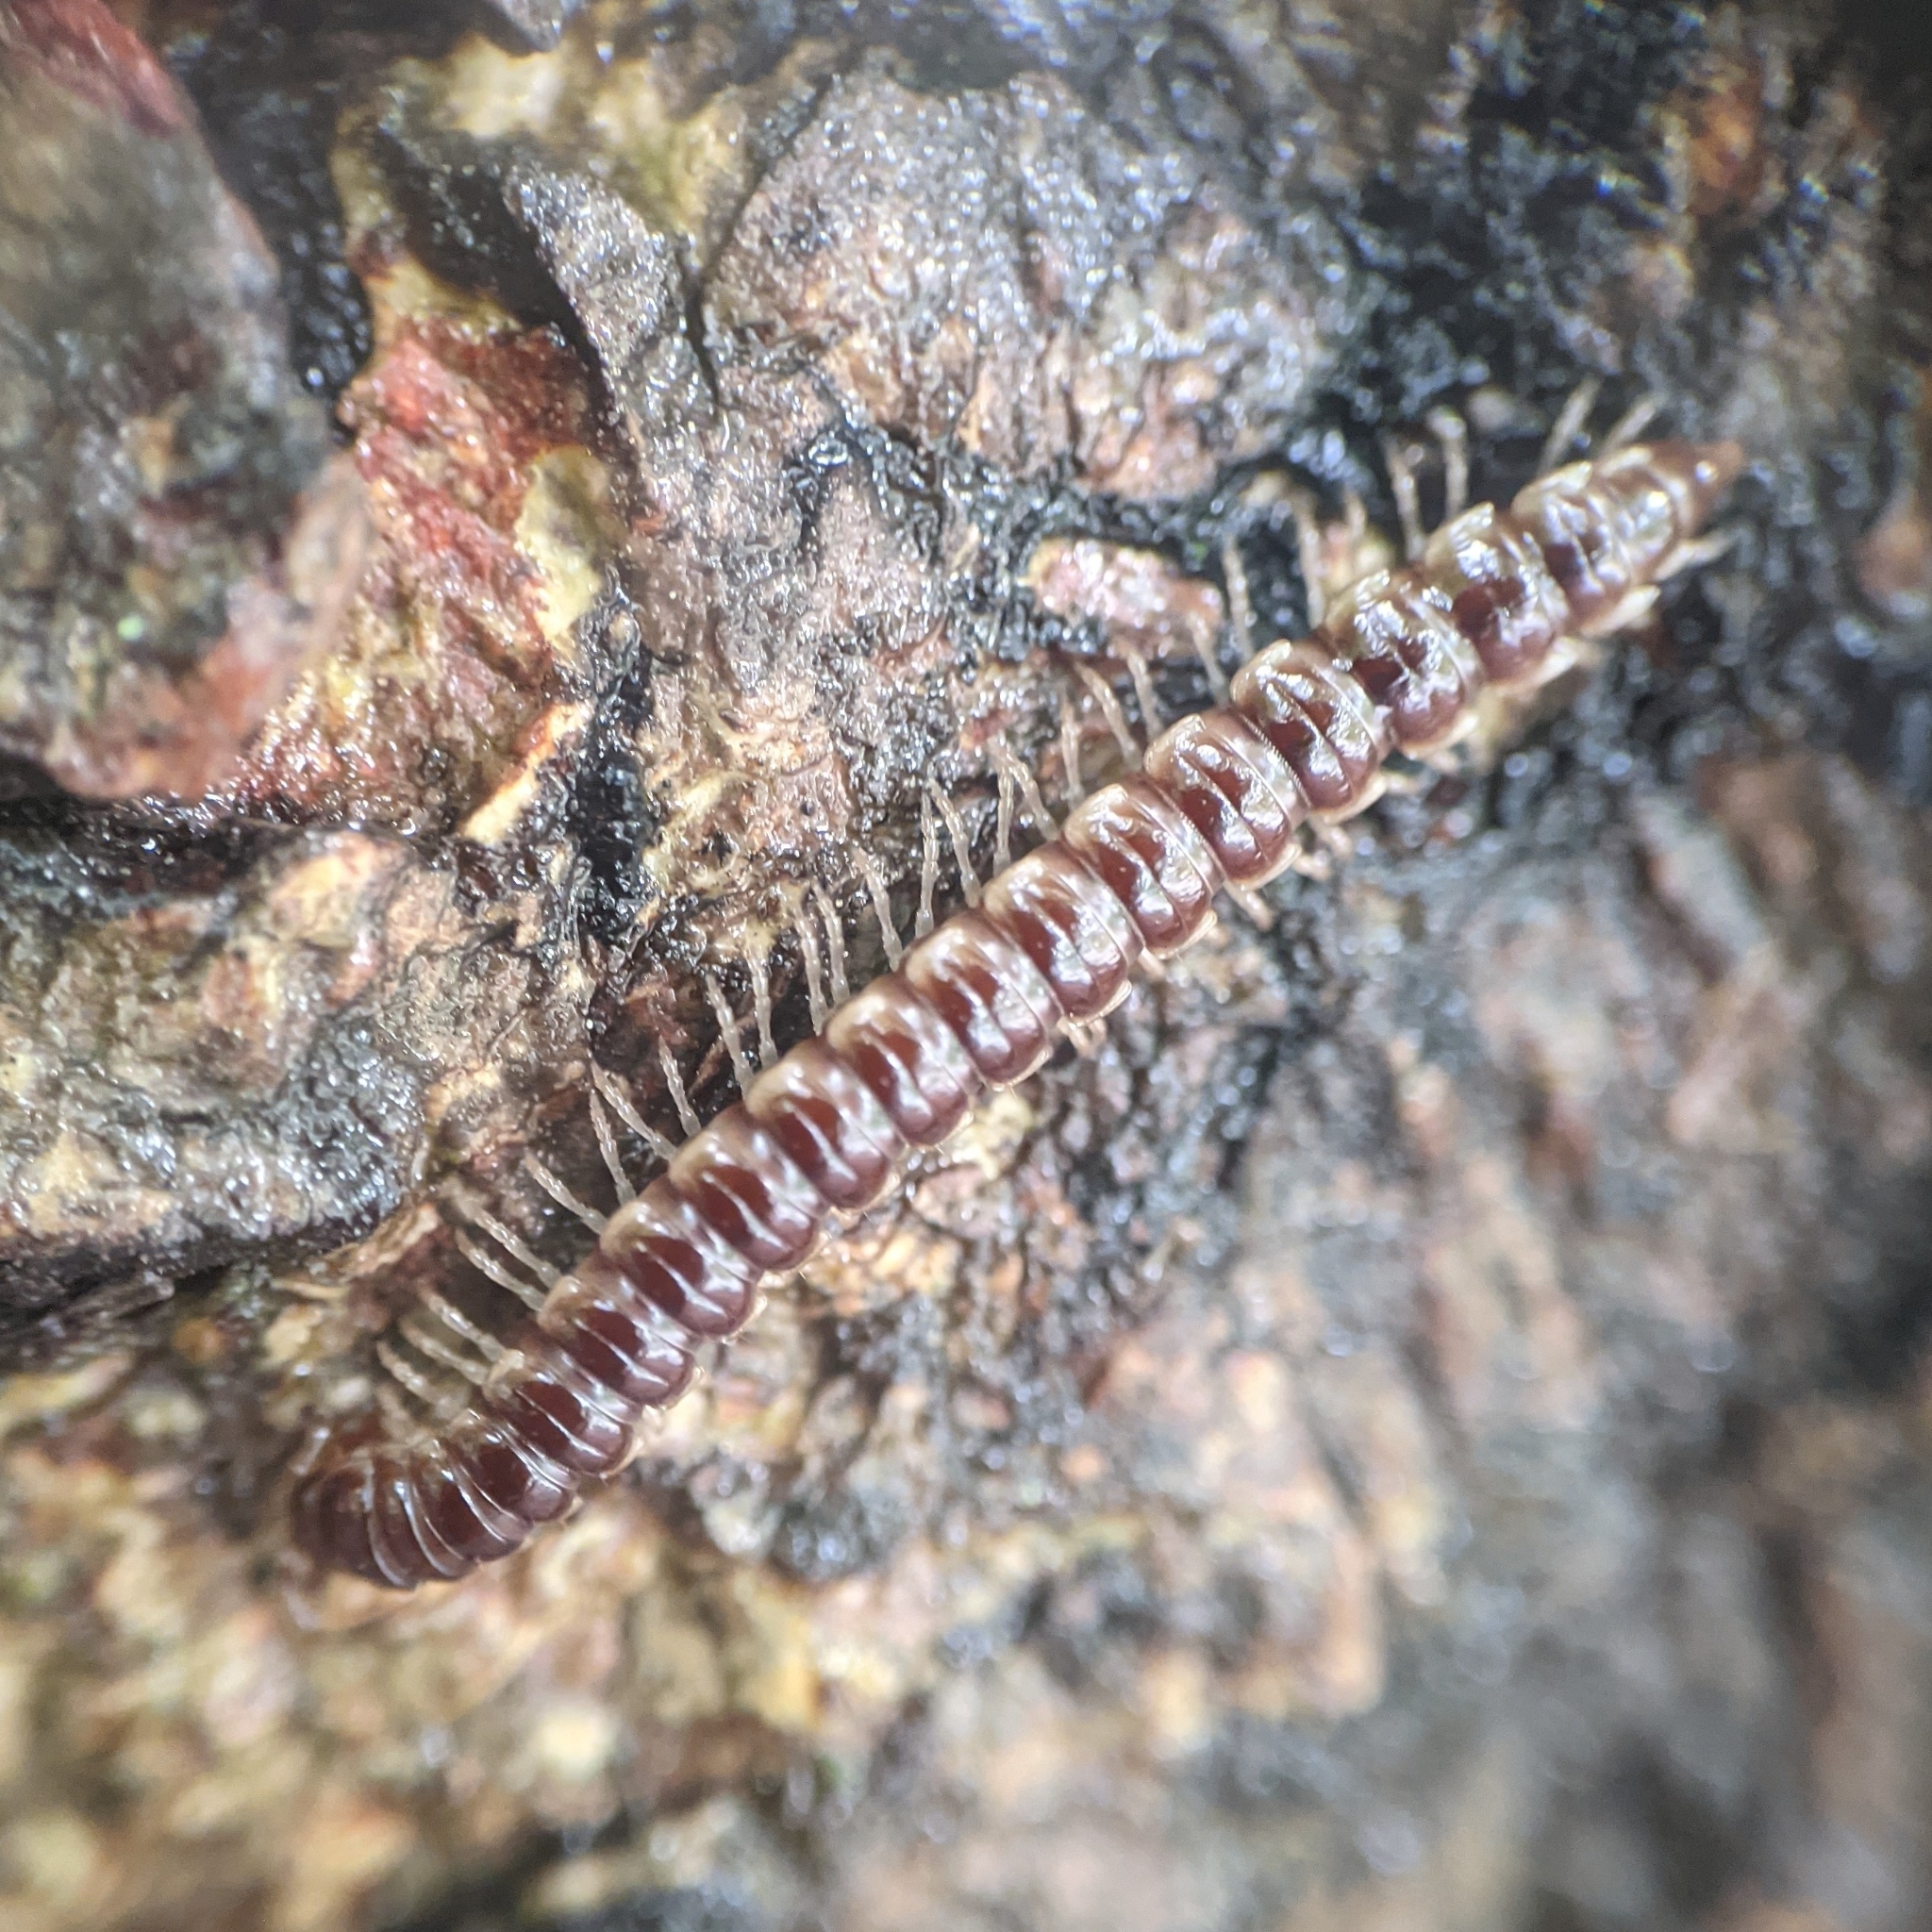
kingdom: Animalia
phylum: Arthropoda
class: Diplopoda
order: Polydesmida
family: Paradoxosomatidae
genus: Oxidus
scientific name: Oxidus gracilis
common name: Greenhouse millipede
